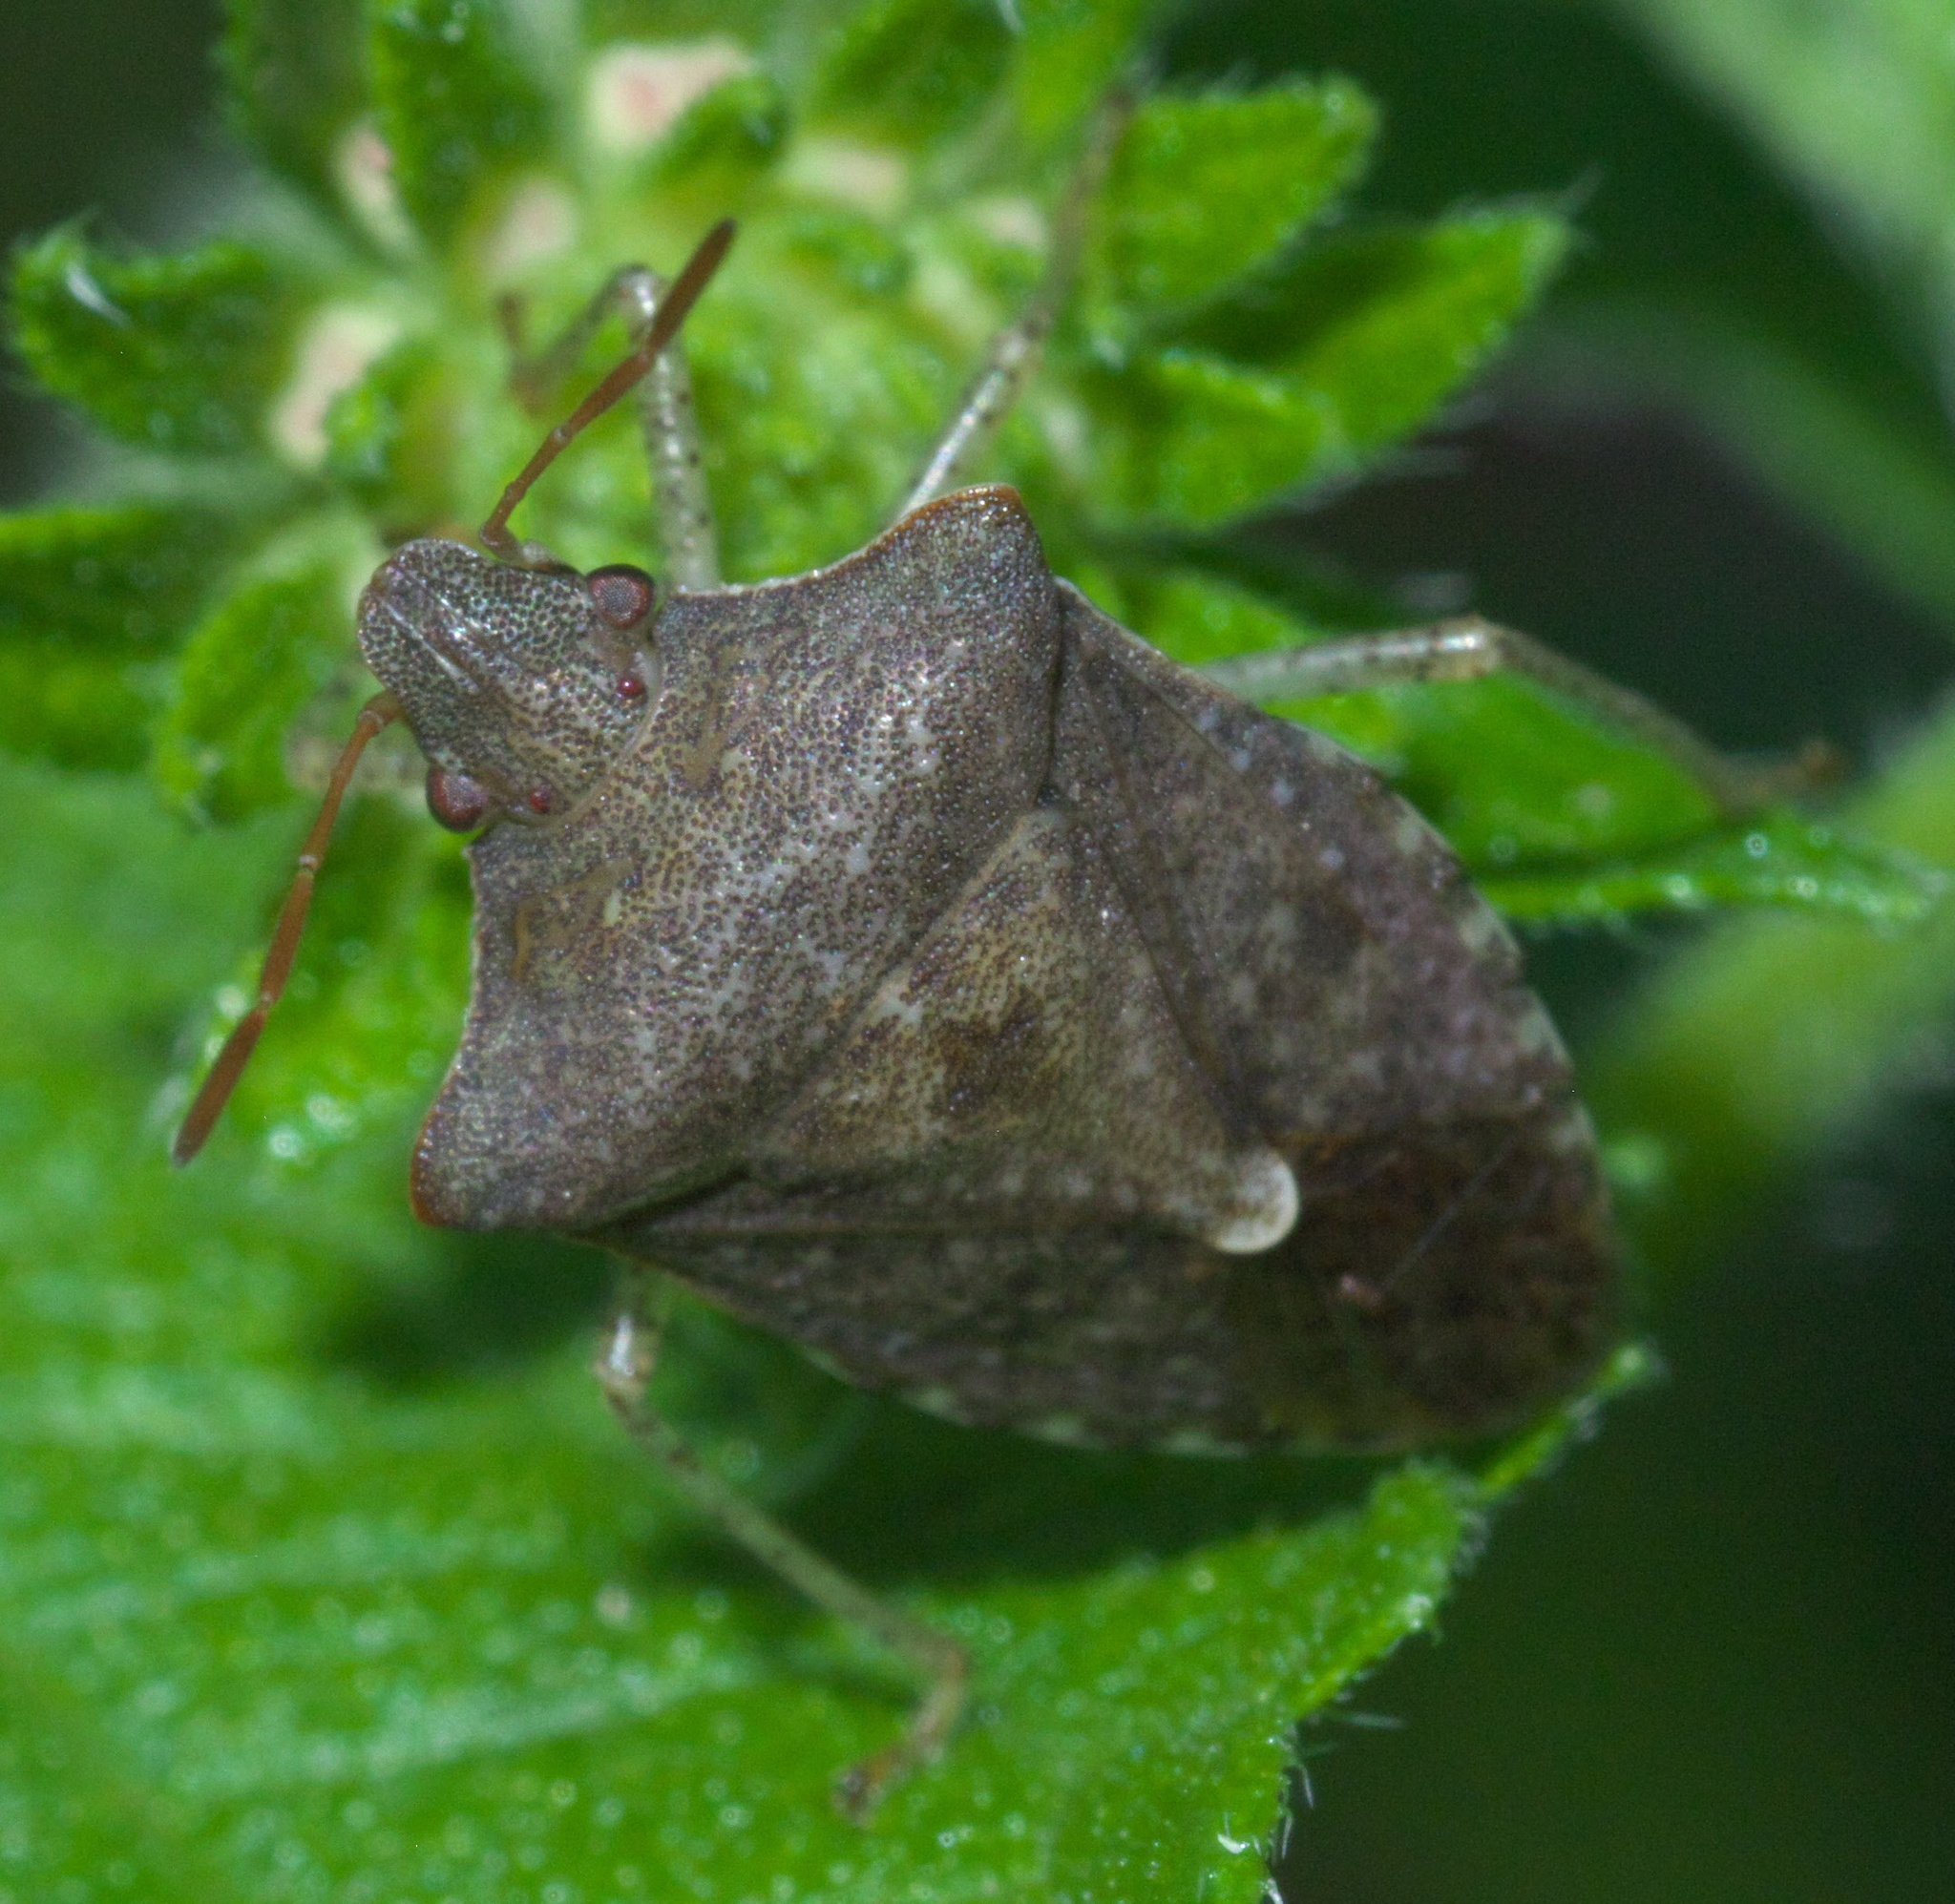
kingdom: Animalia
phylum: Arthropoda
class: Insecta
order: Hemiptera
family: Pentatomidae
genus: Euschistus
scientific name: Euschistus tristigmus
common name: Dusky stink bug
